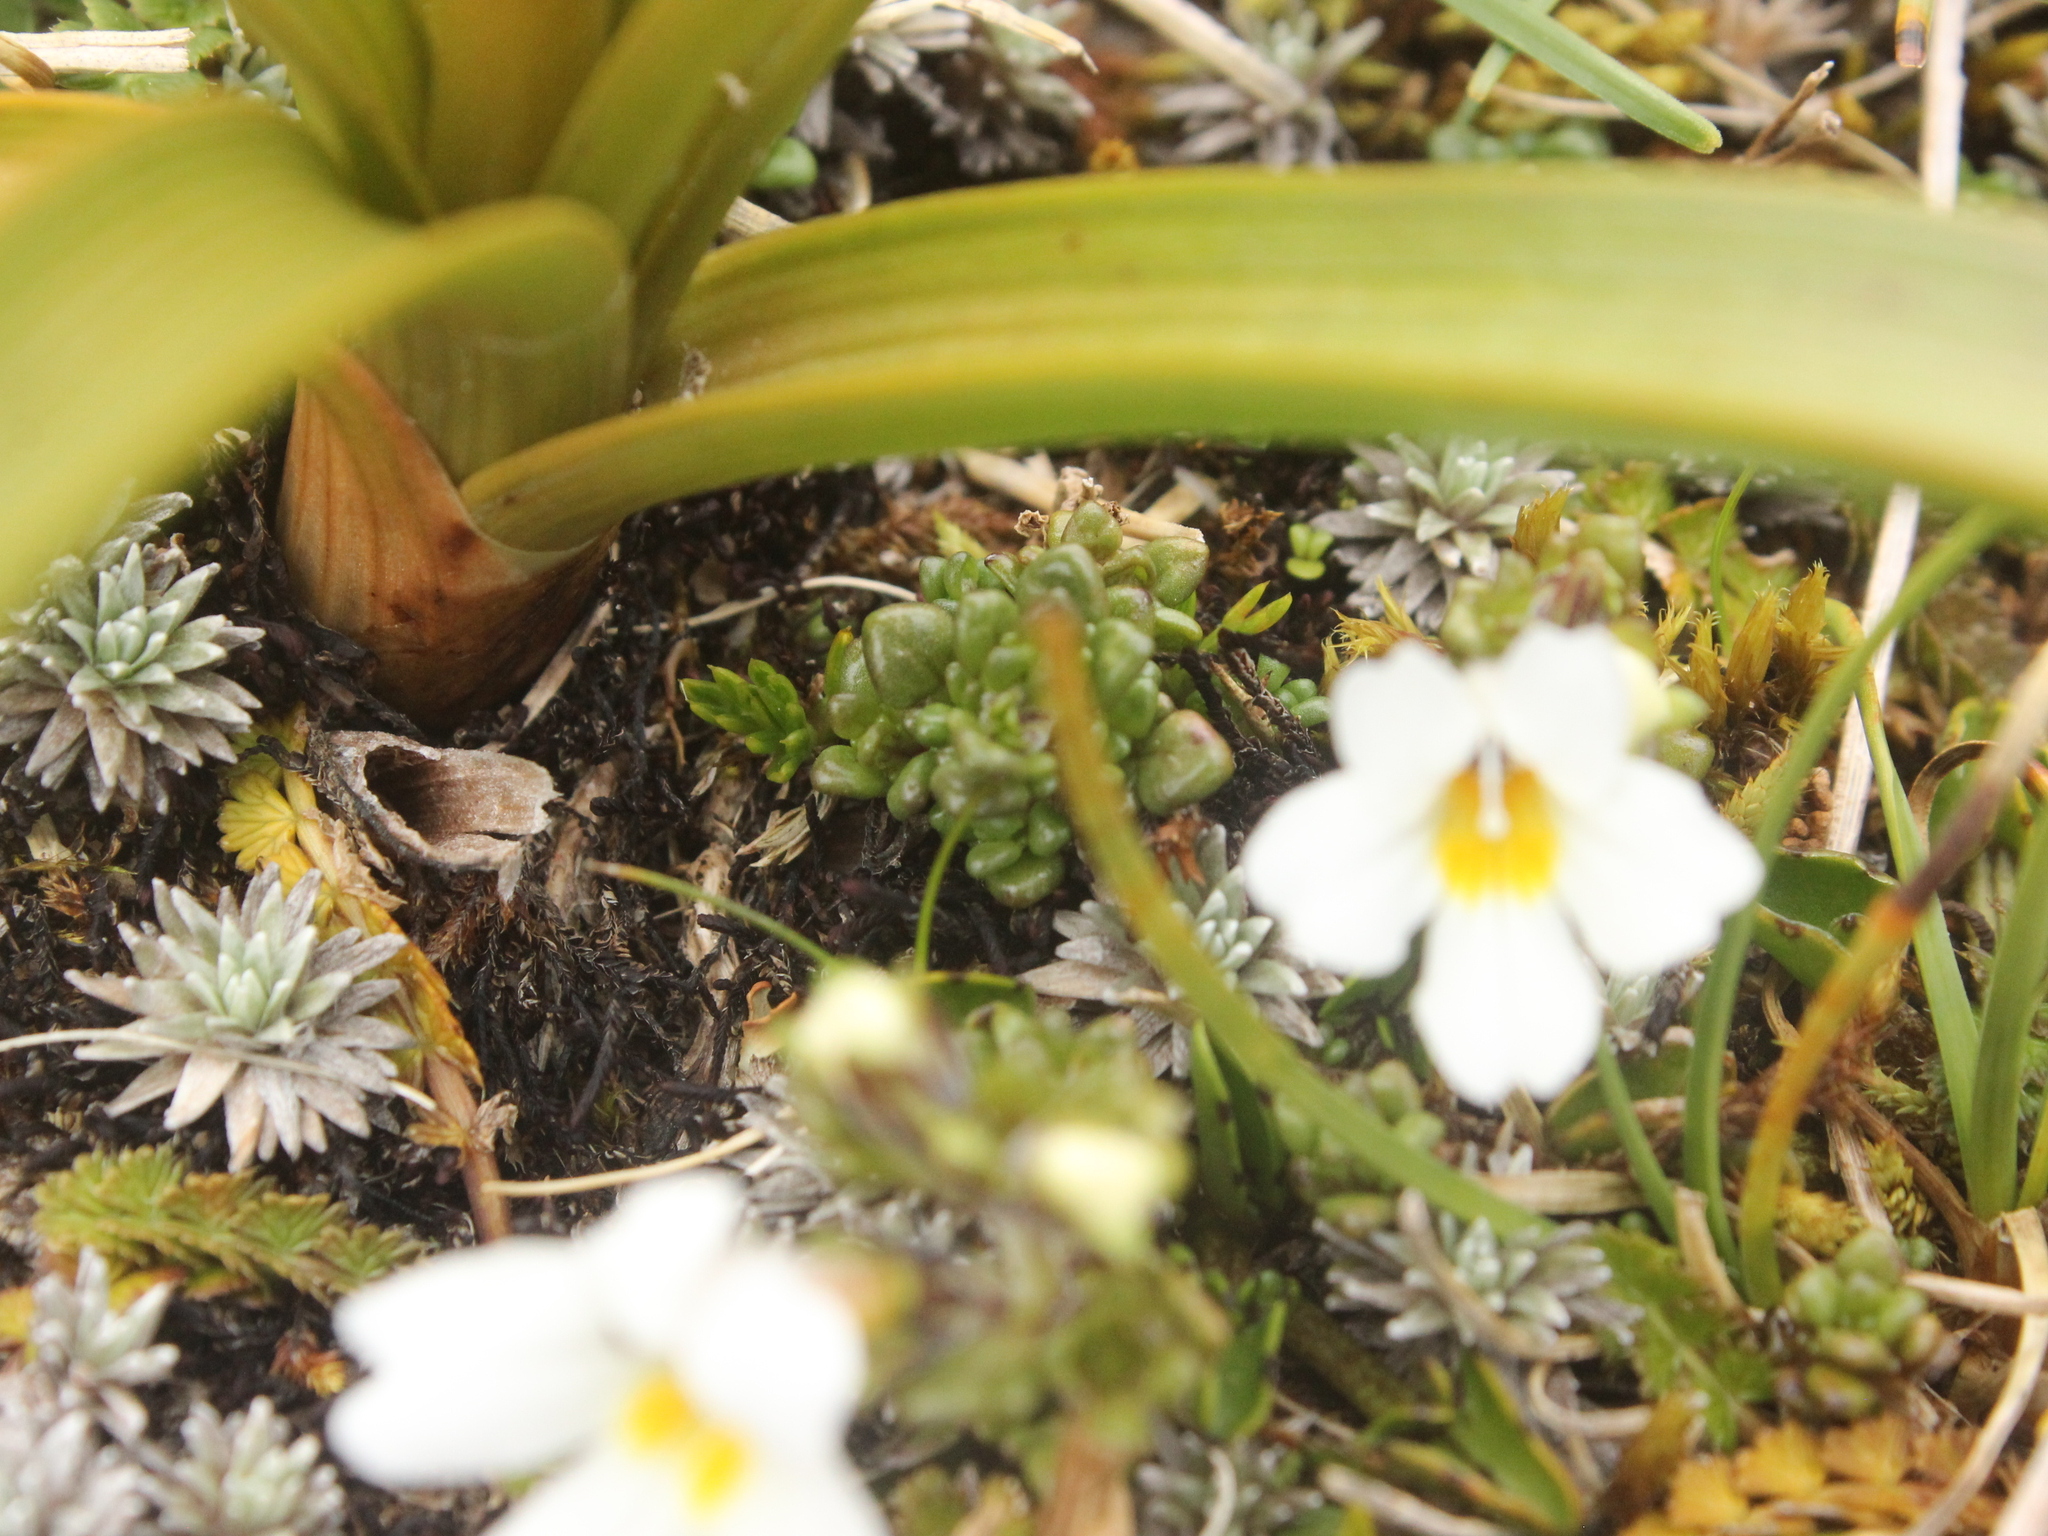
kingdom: Plantae
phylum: Tracheophyta
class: Magnoliopsida
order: Lamiales
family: Orobanchaceae
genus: Euphrasia
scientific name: Euphrasia revoluta
